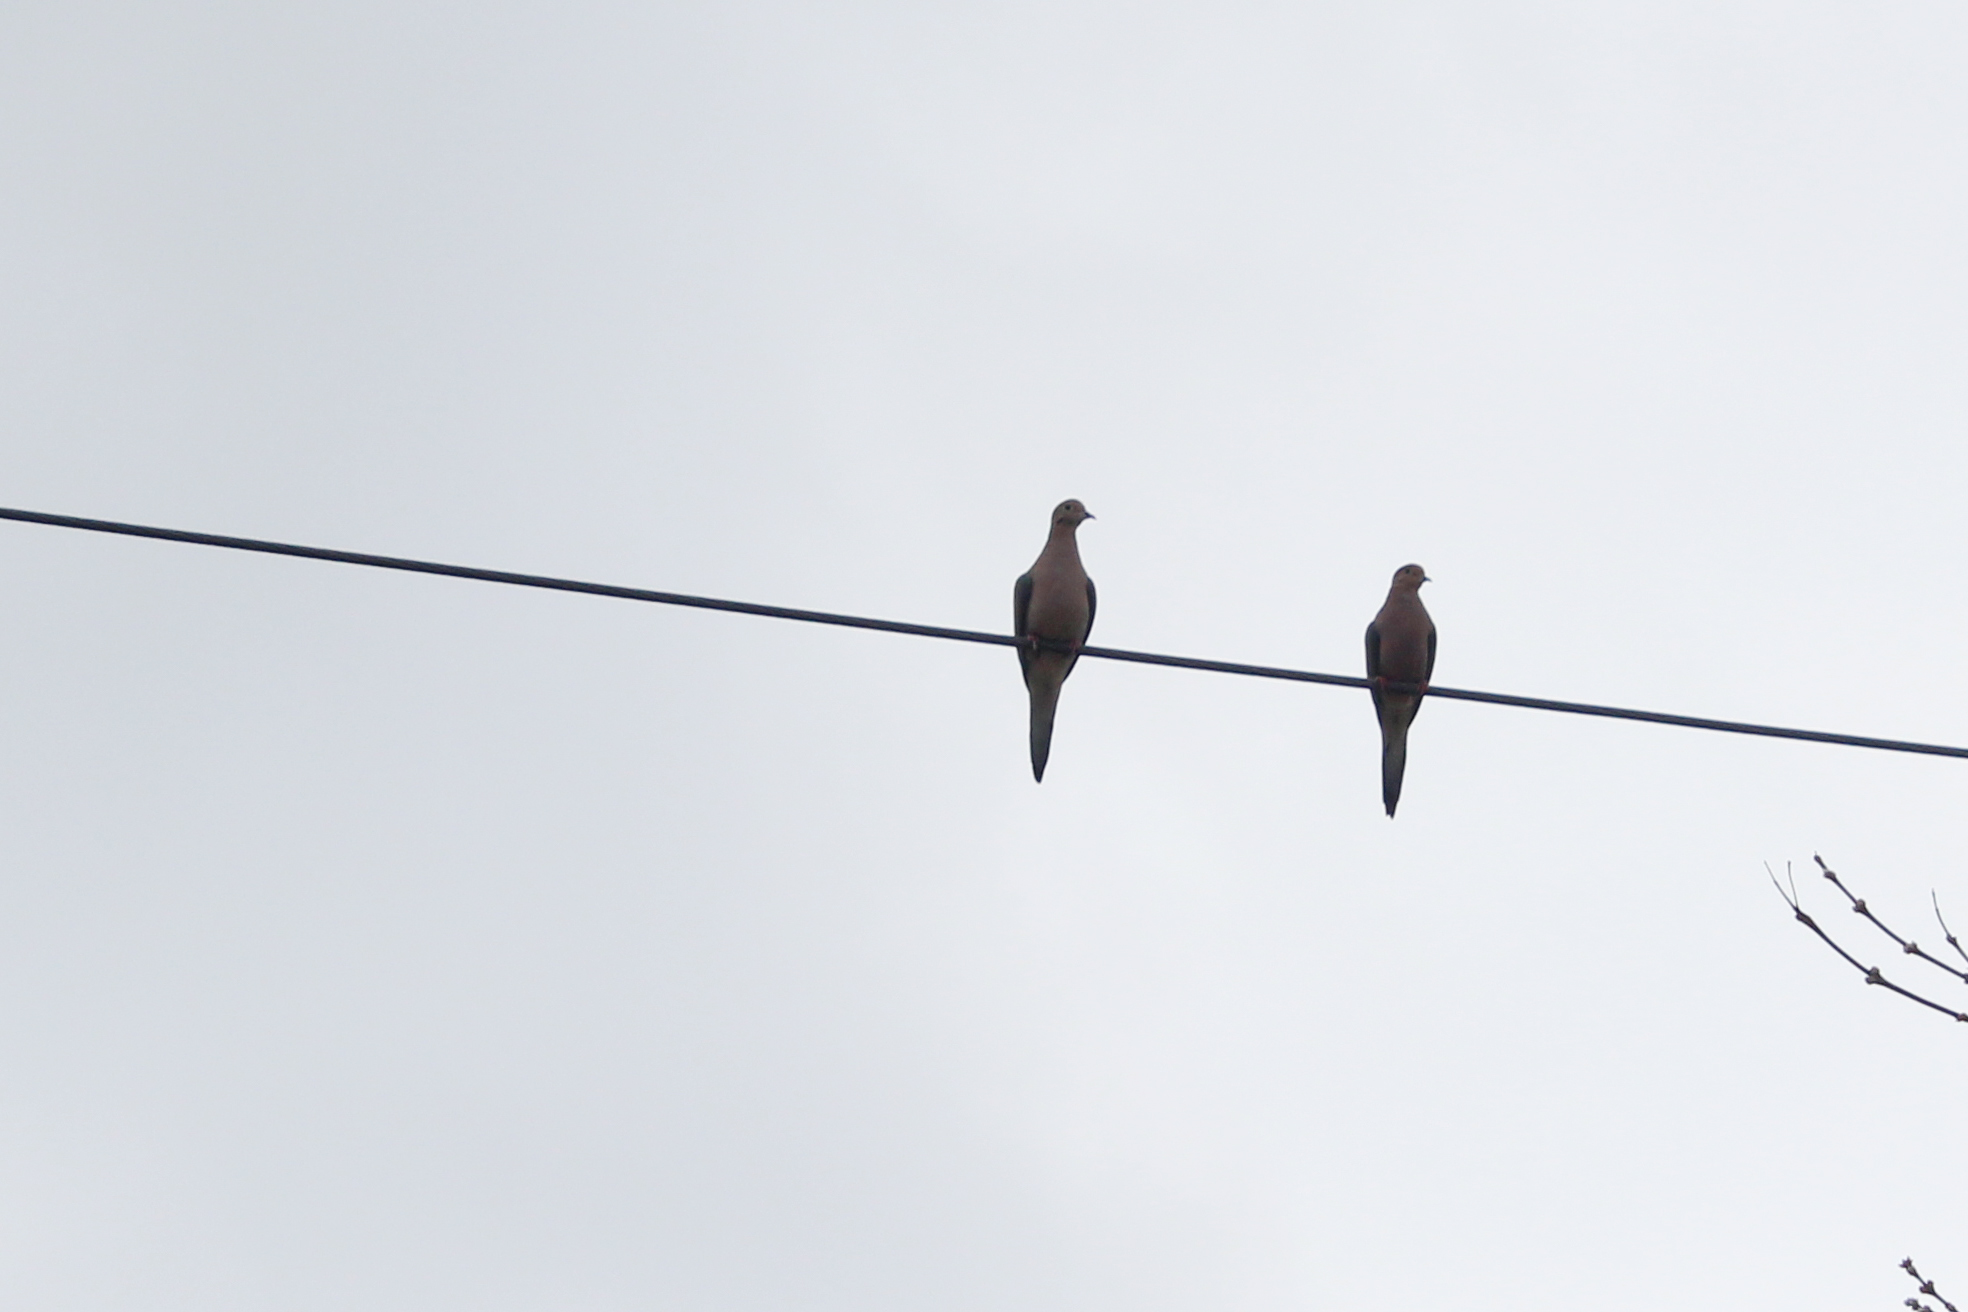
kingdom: Animalia
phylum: Chordata
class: Aves
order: Columbiformes
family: Columbidae
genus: Zenaida
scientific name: Zenaida macroura
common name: Mourning dove
